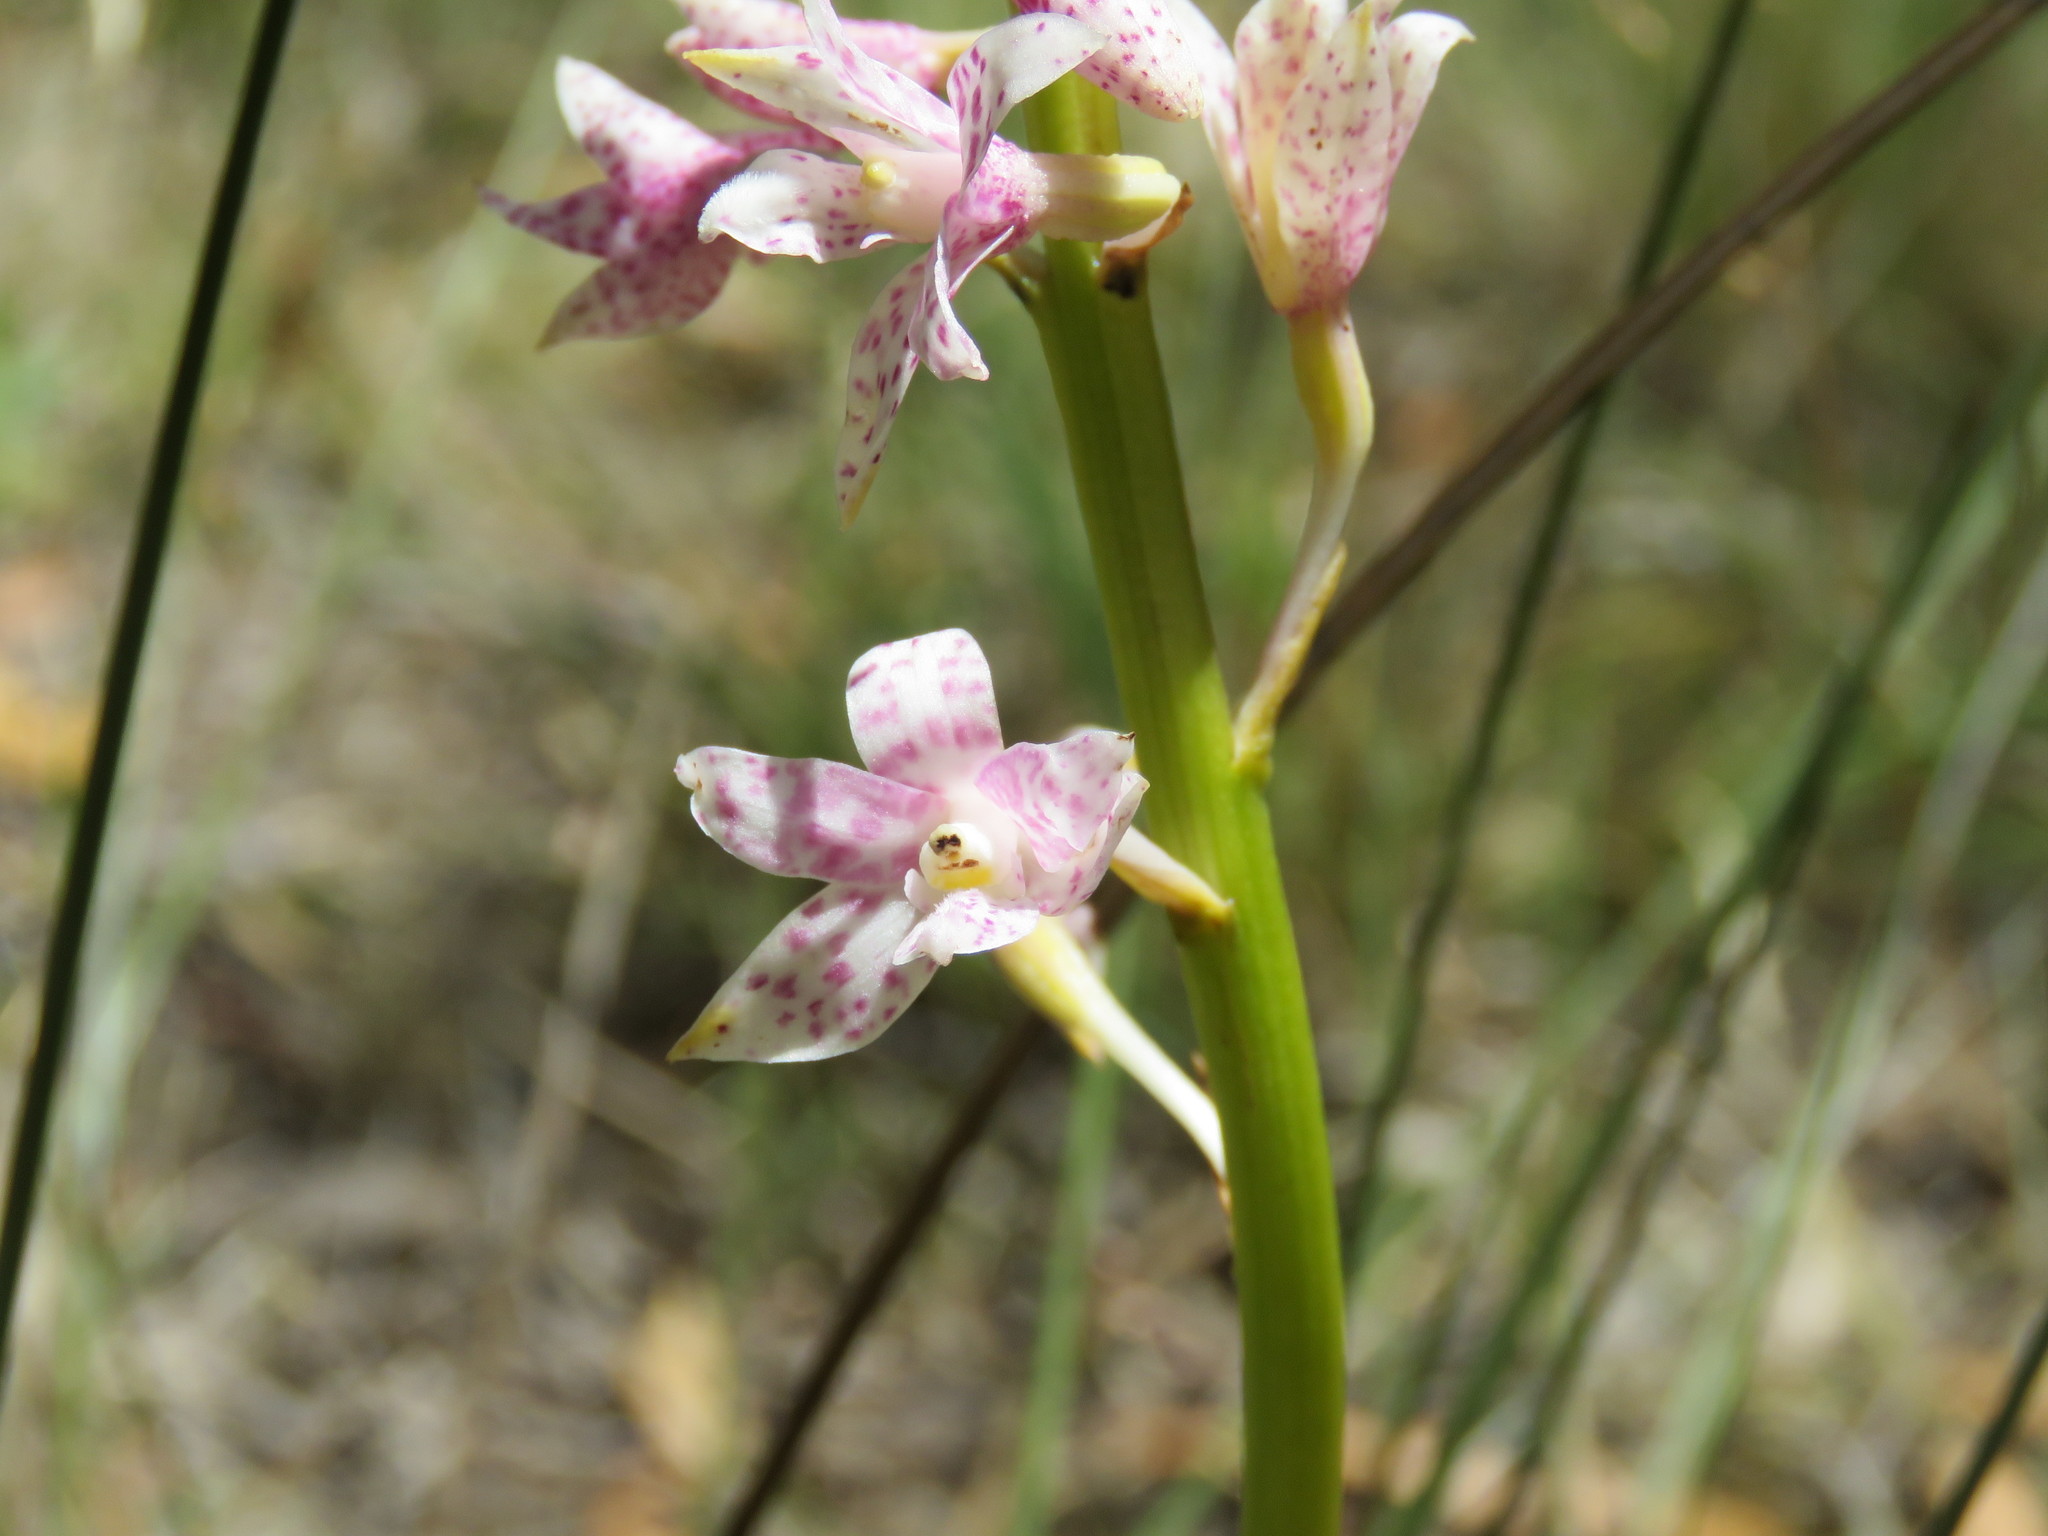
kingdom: Plantae
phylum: Tracheophyta
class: Liliopsida
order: Asparagales
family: Orchidaceae
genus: Dipodium
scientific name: Dipodium pardalinum
